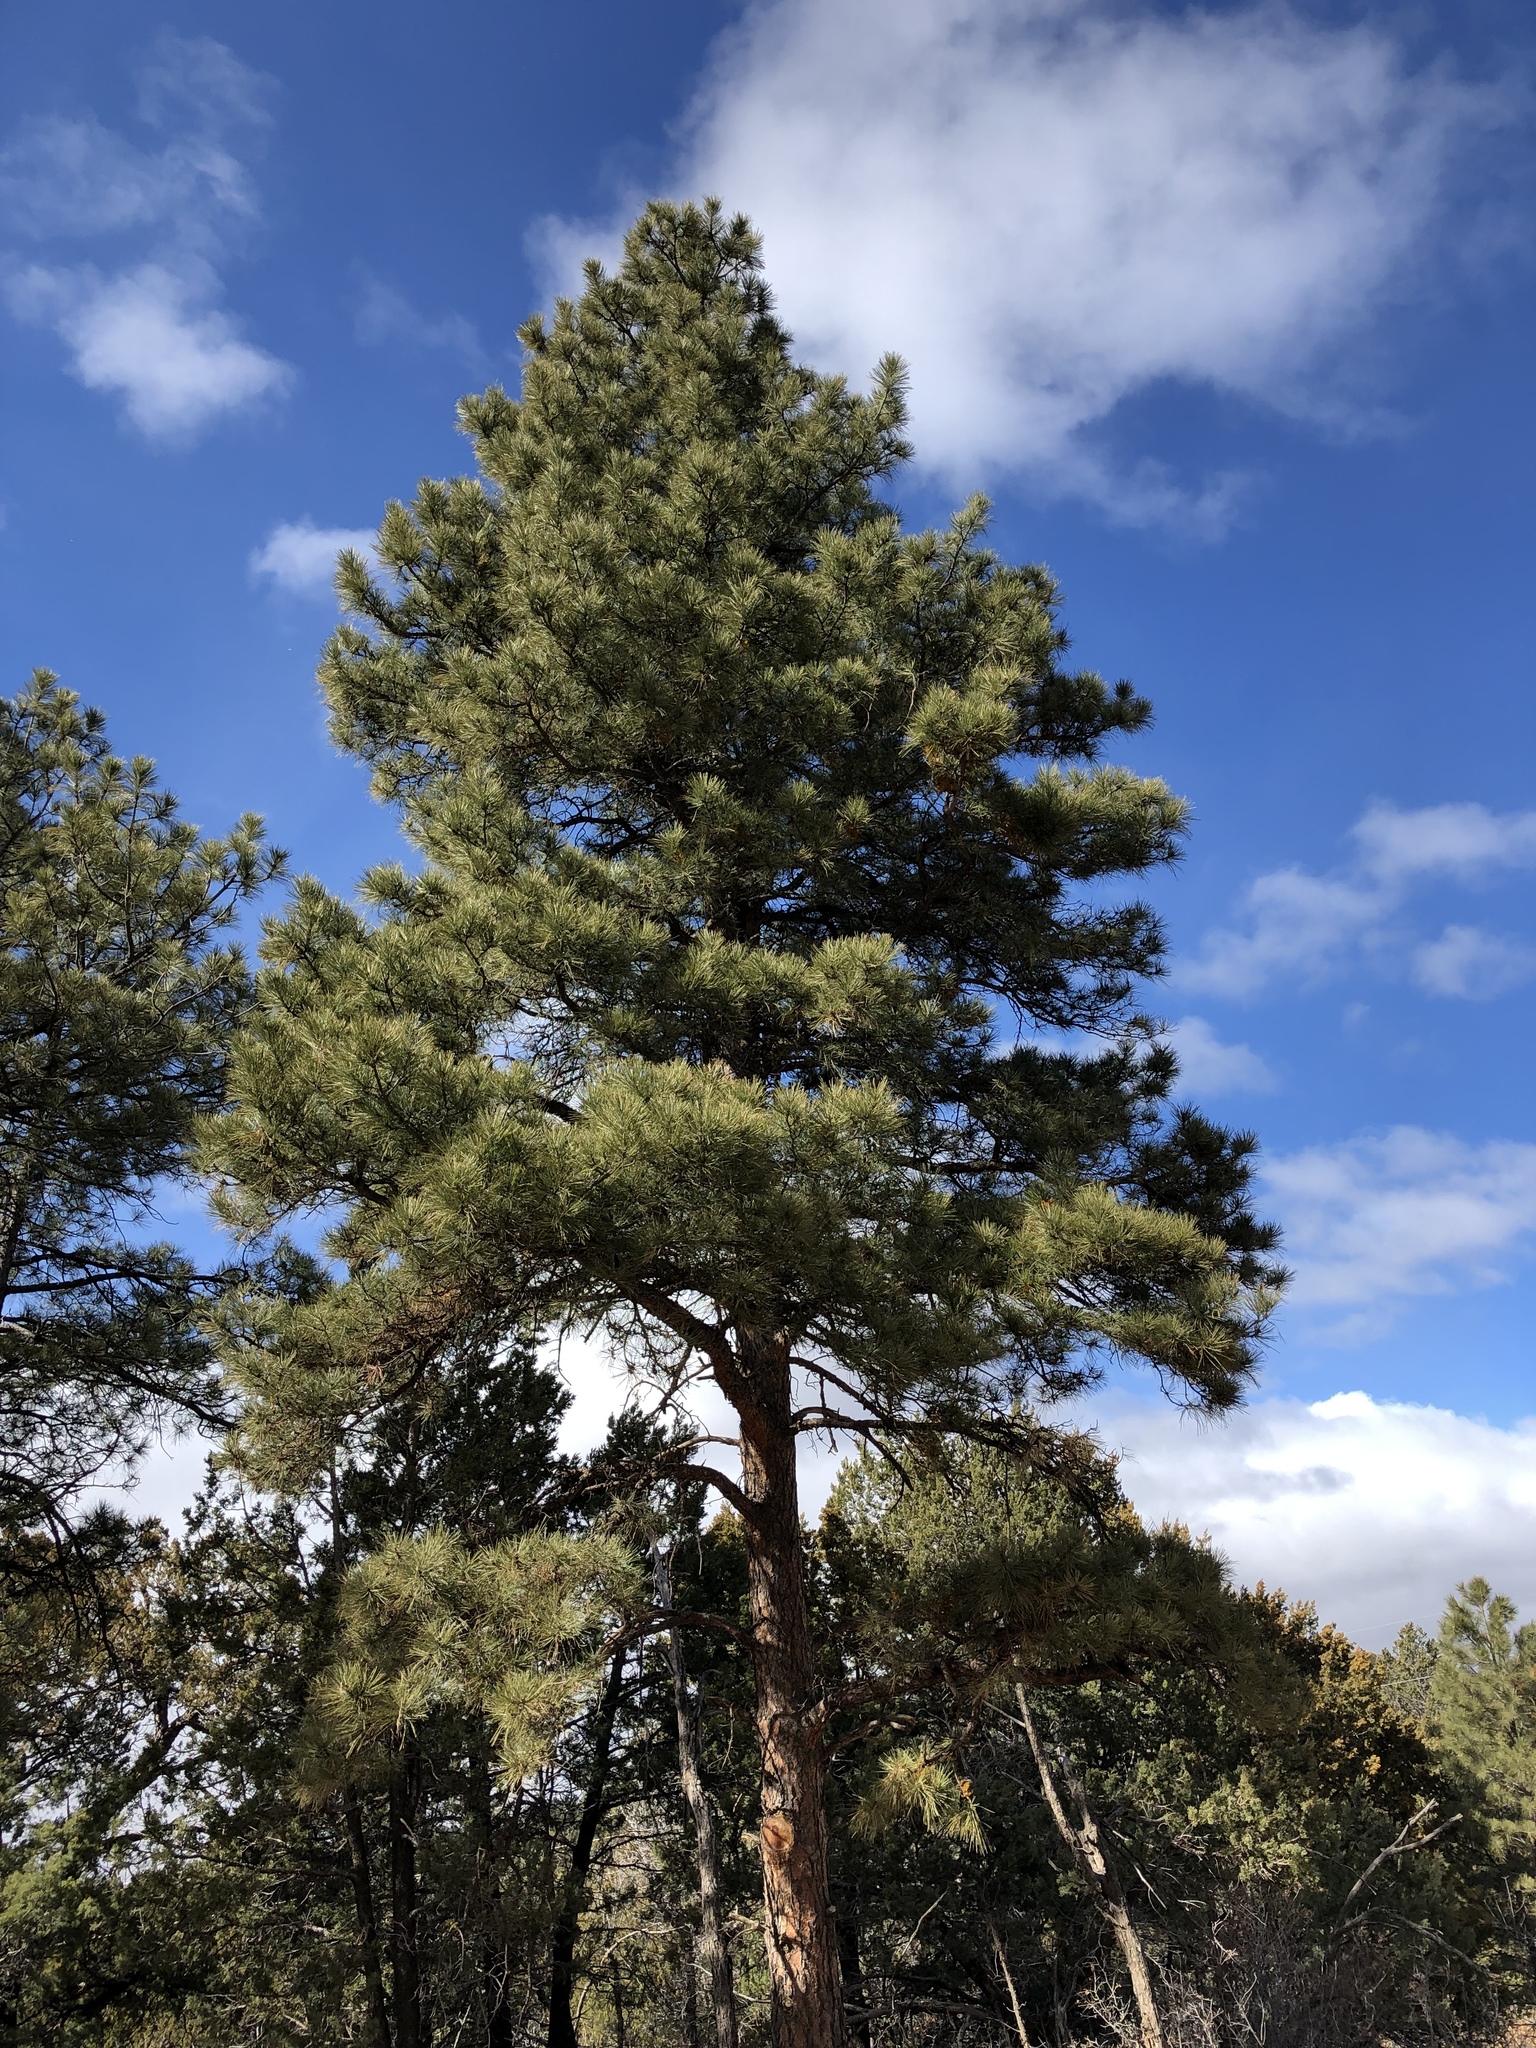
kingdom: Plantae
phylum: Tracheophyta
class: Pinopsida
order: Pinales
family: Pinaceae
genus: Pinus
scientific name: Pinus ponderosa
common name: Western yellow-pine
